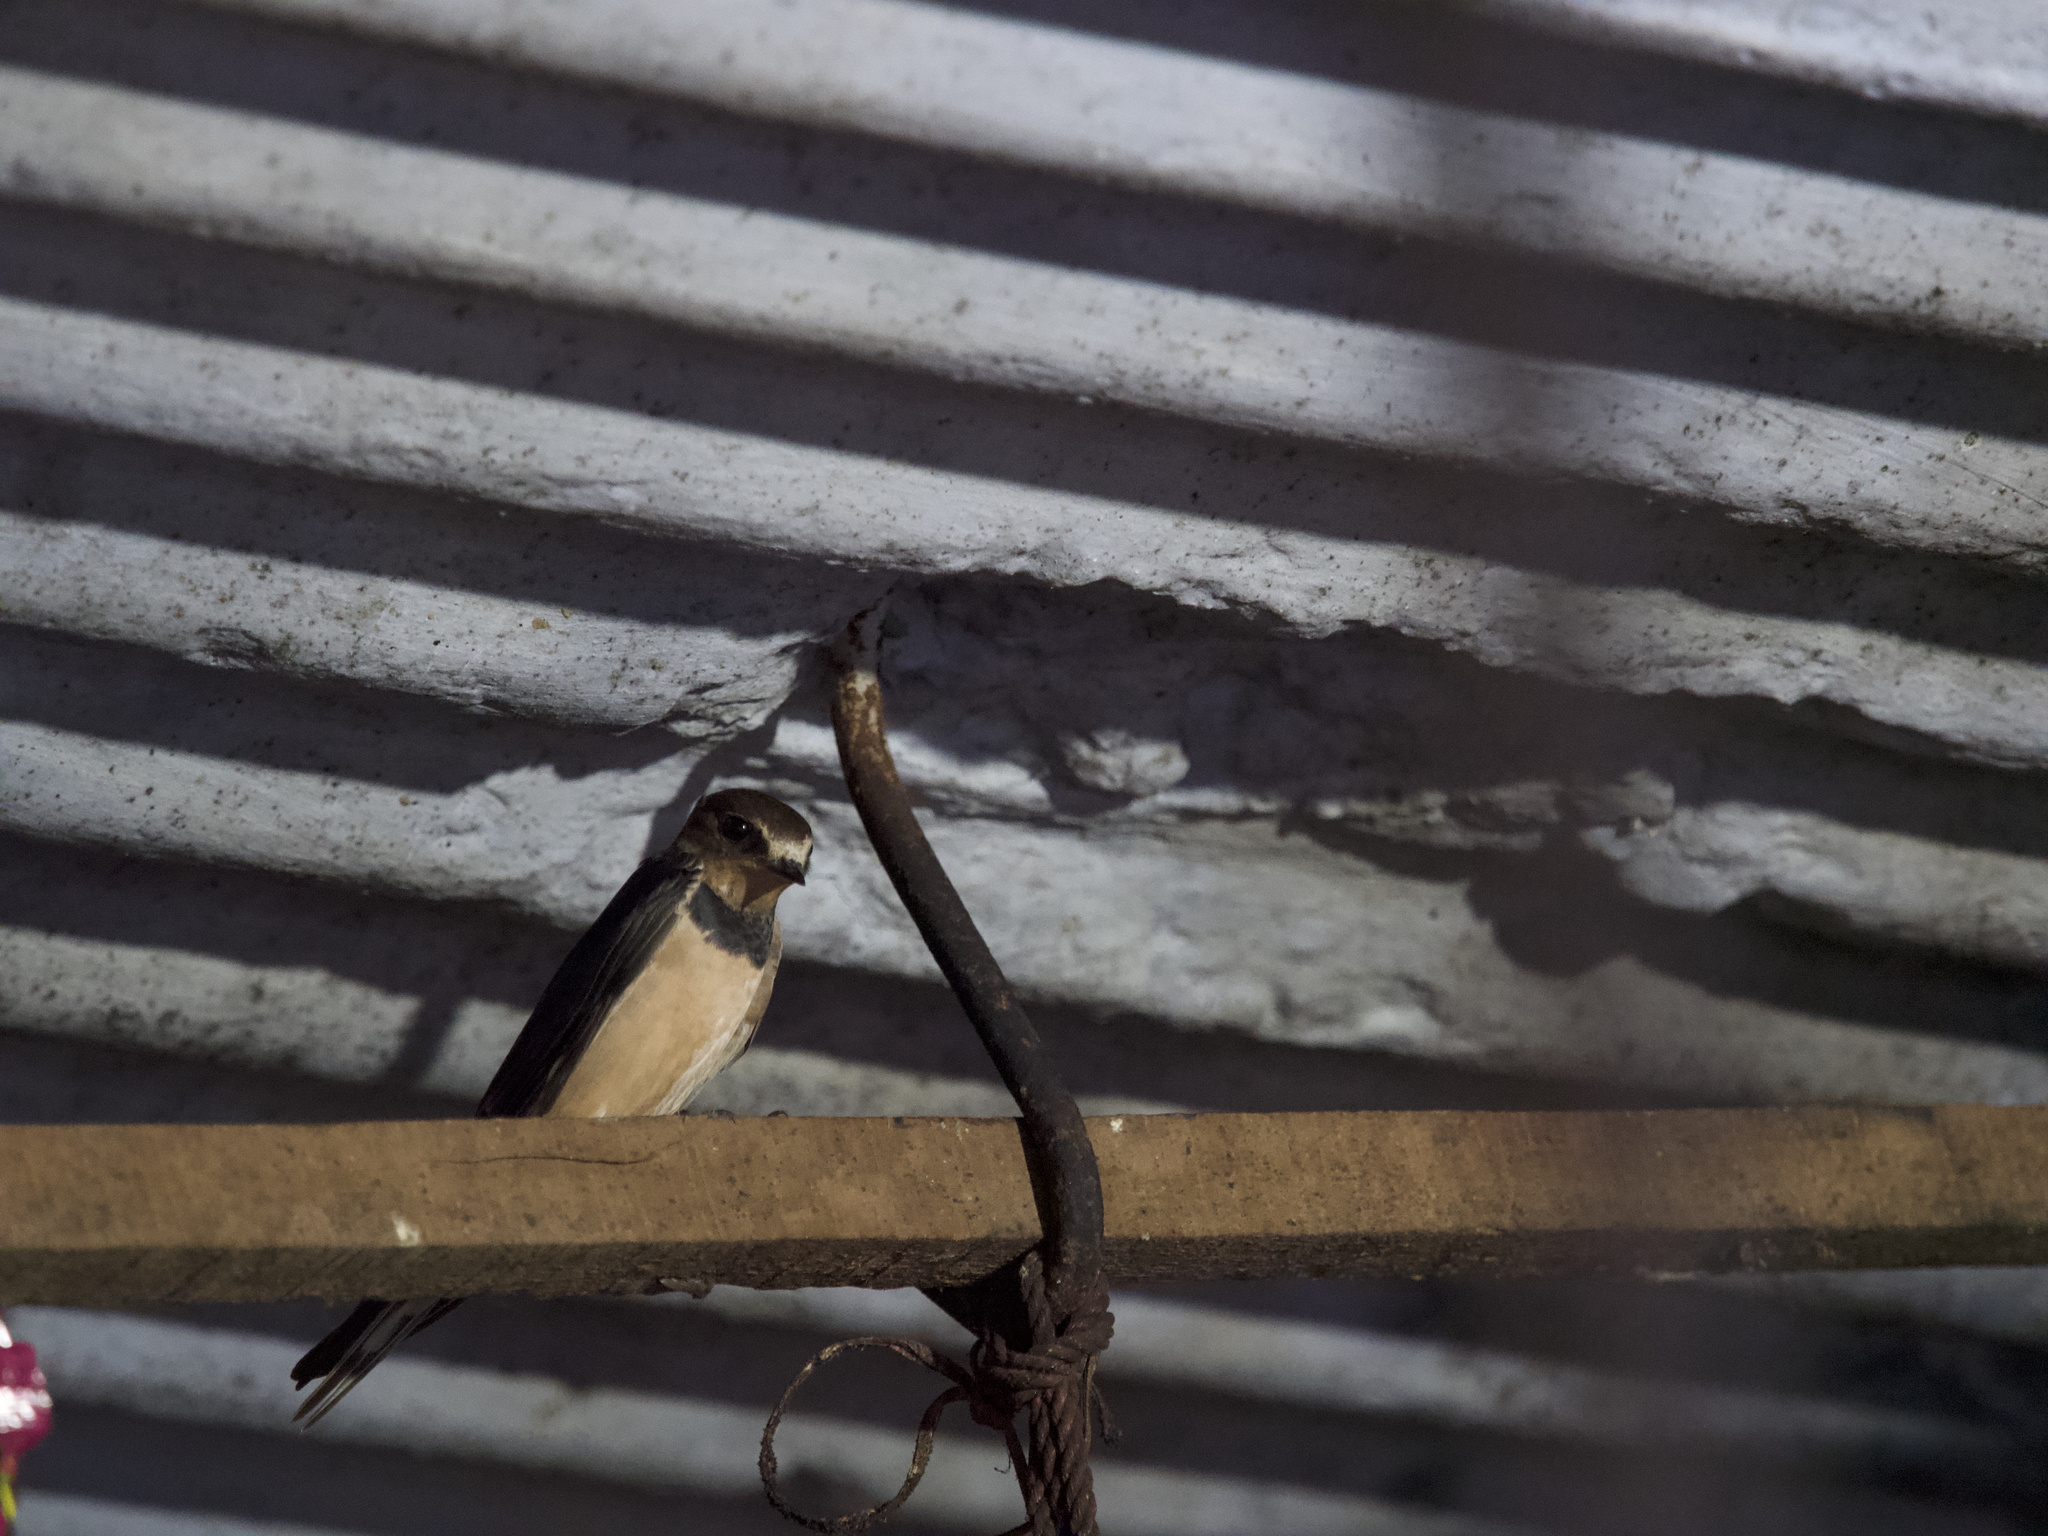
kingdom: Animalia
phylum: Chordata
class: Aves
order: Passeriformes
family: Hirundinidae
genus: Hirundo
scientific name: Hirundo rustica
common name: Barn swallow
